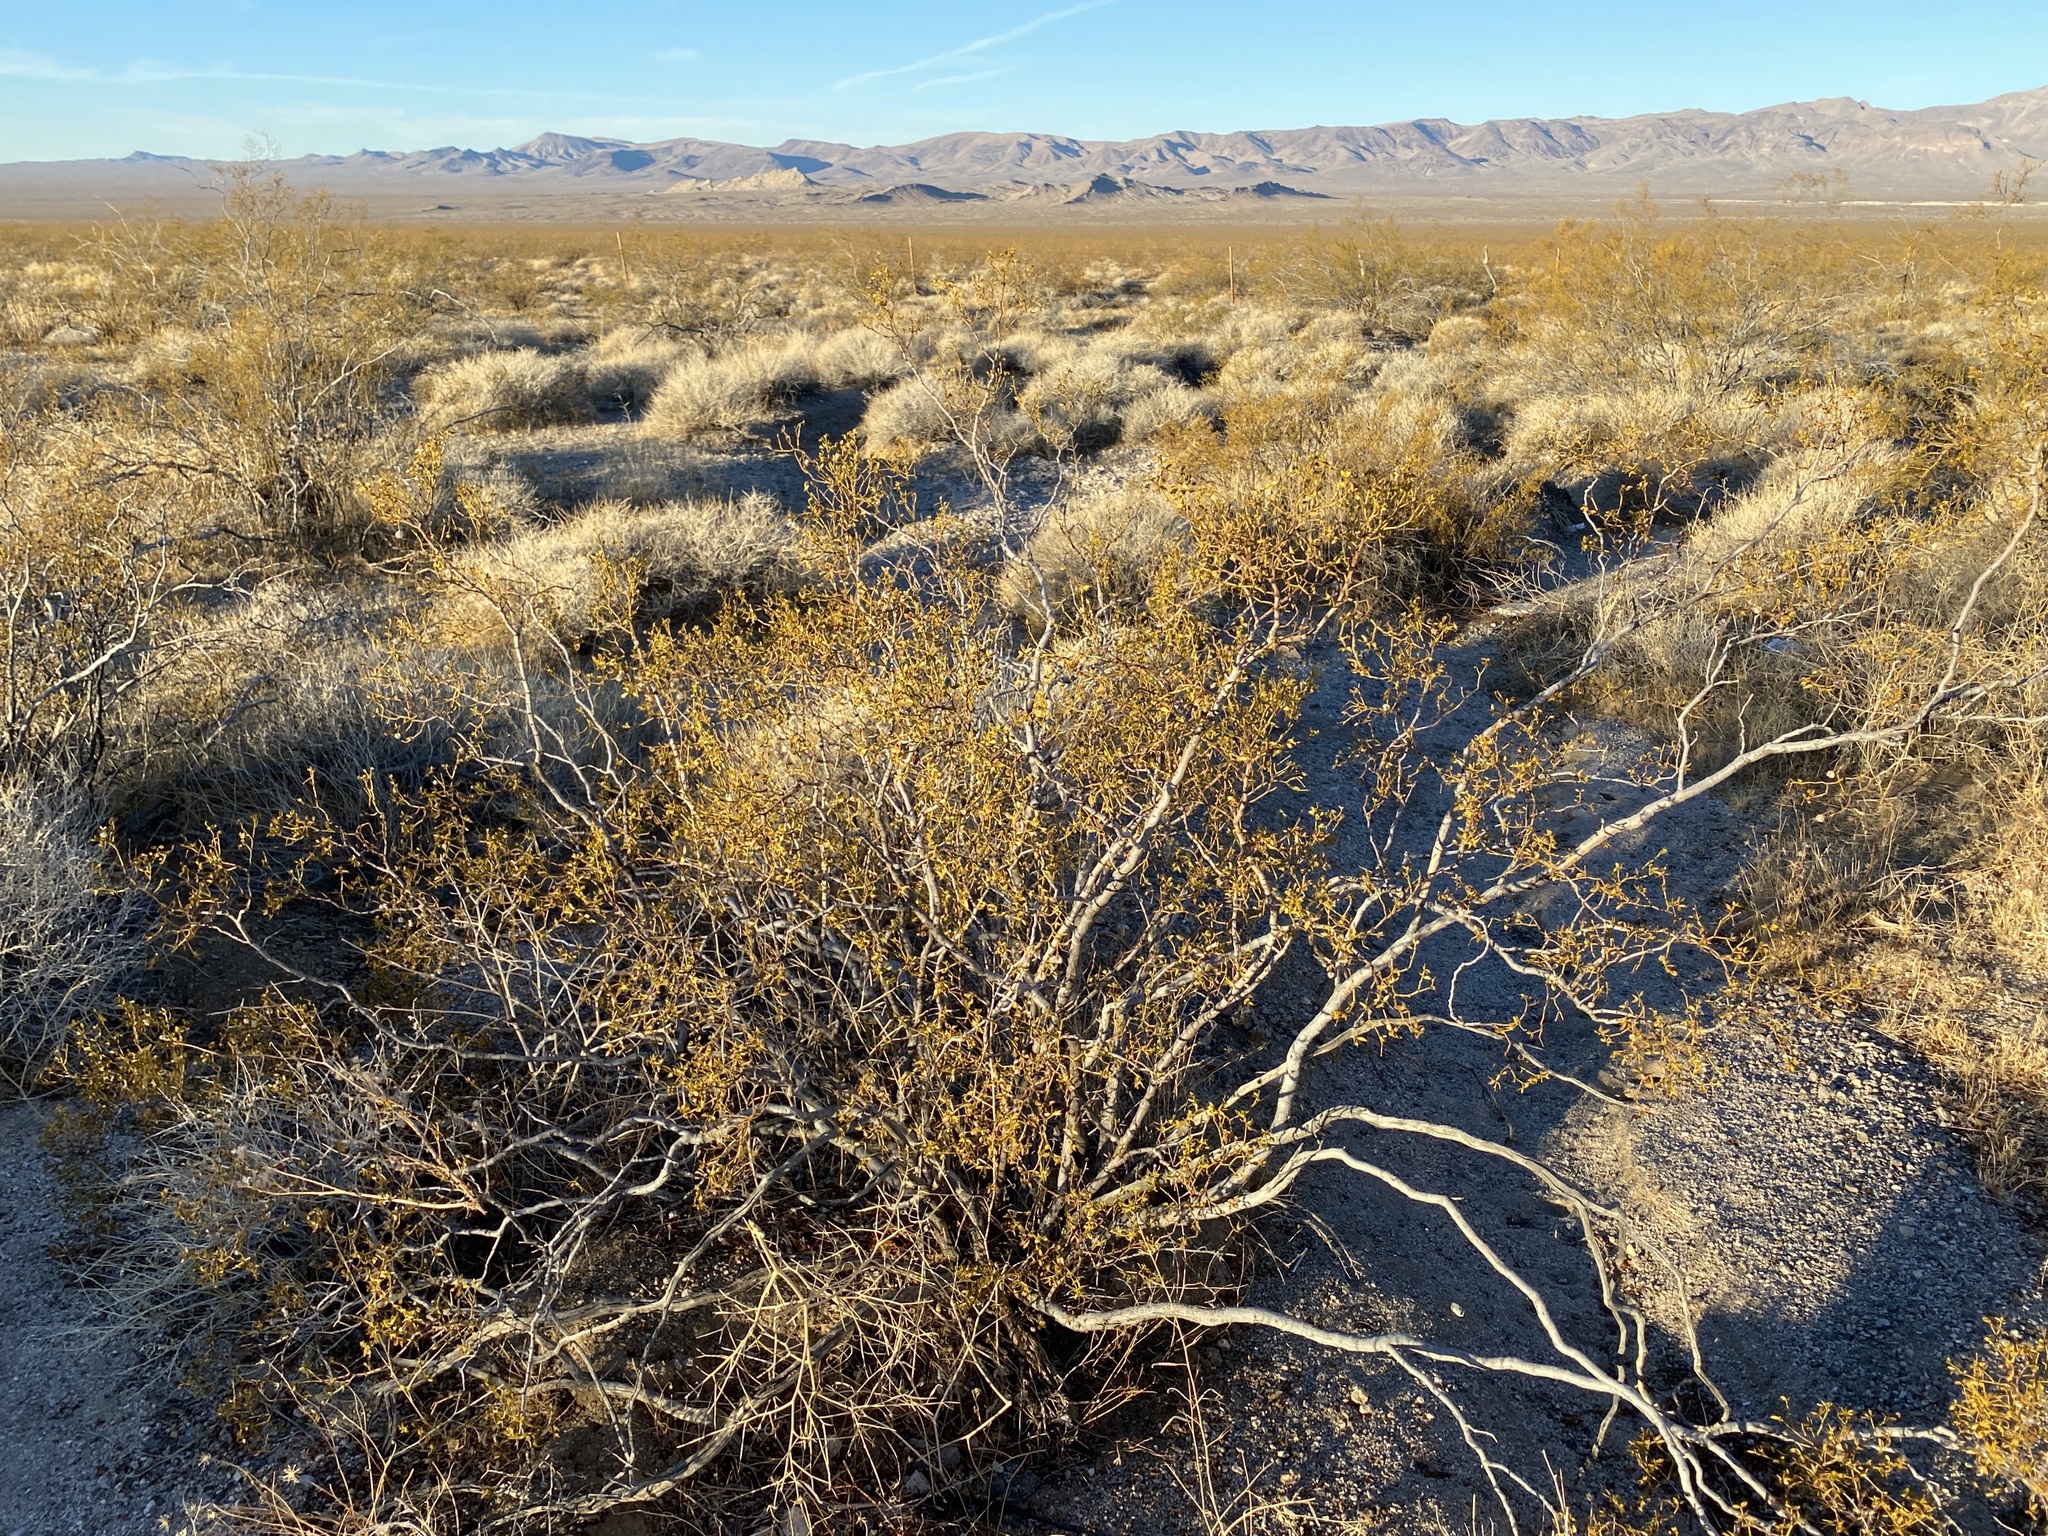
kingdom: Plantae
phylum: Tracheophyta
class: Magnoliopsida
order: Zygophyllales
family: Zygophyllaceae
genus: Larrea
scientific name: Larrea tridentata
